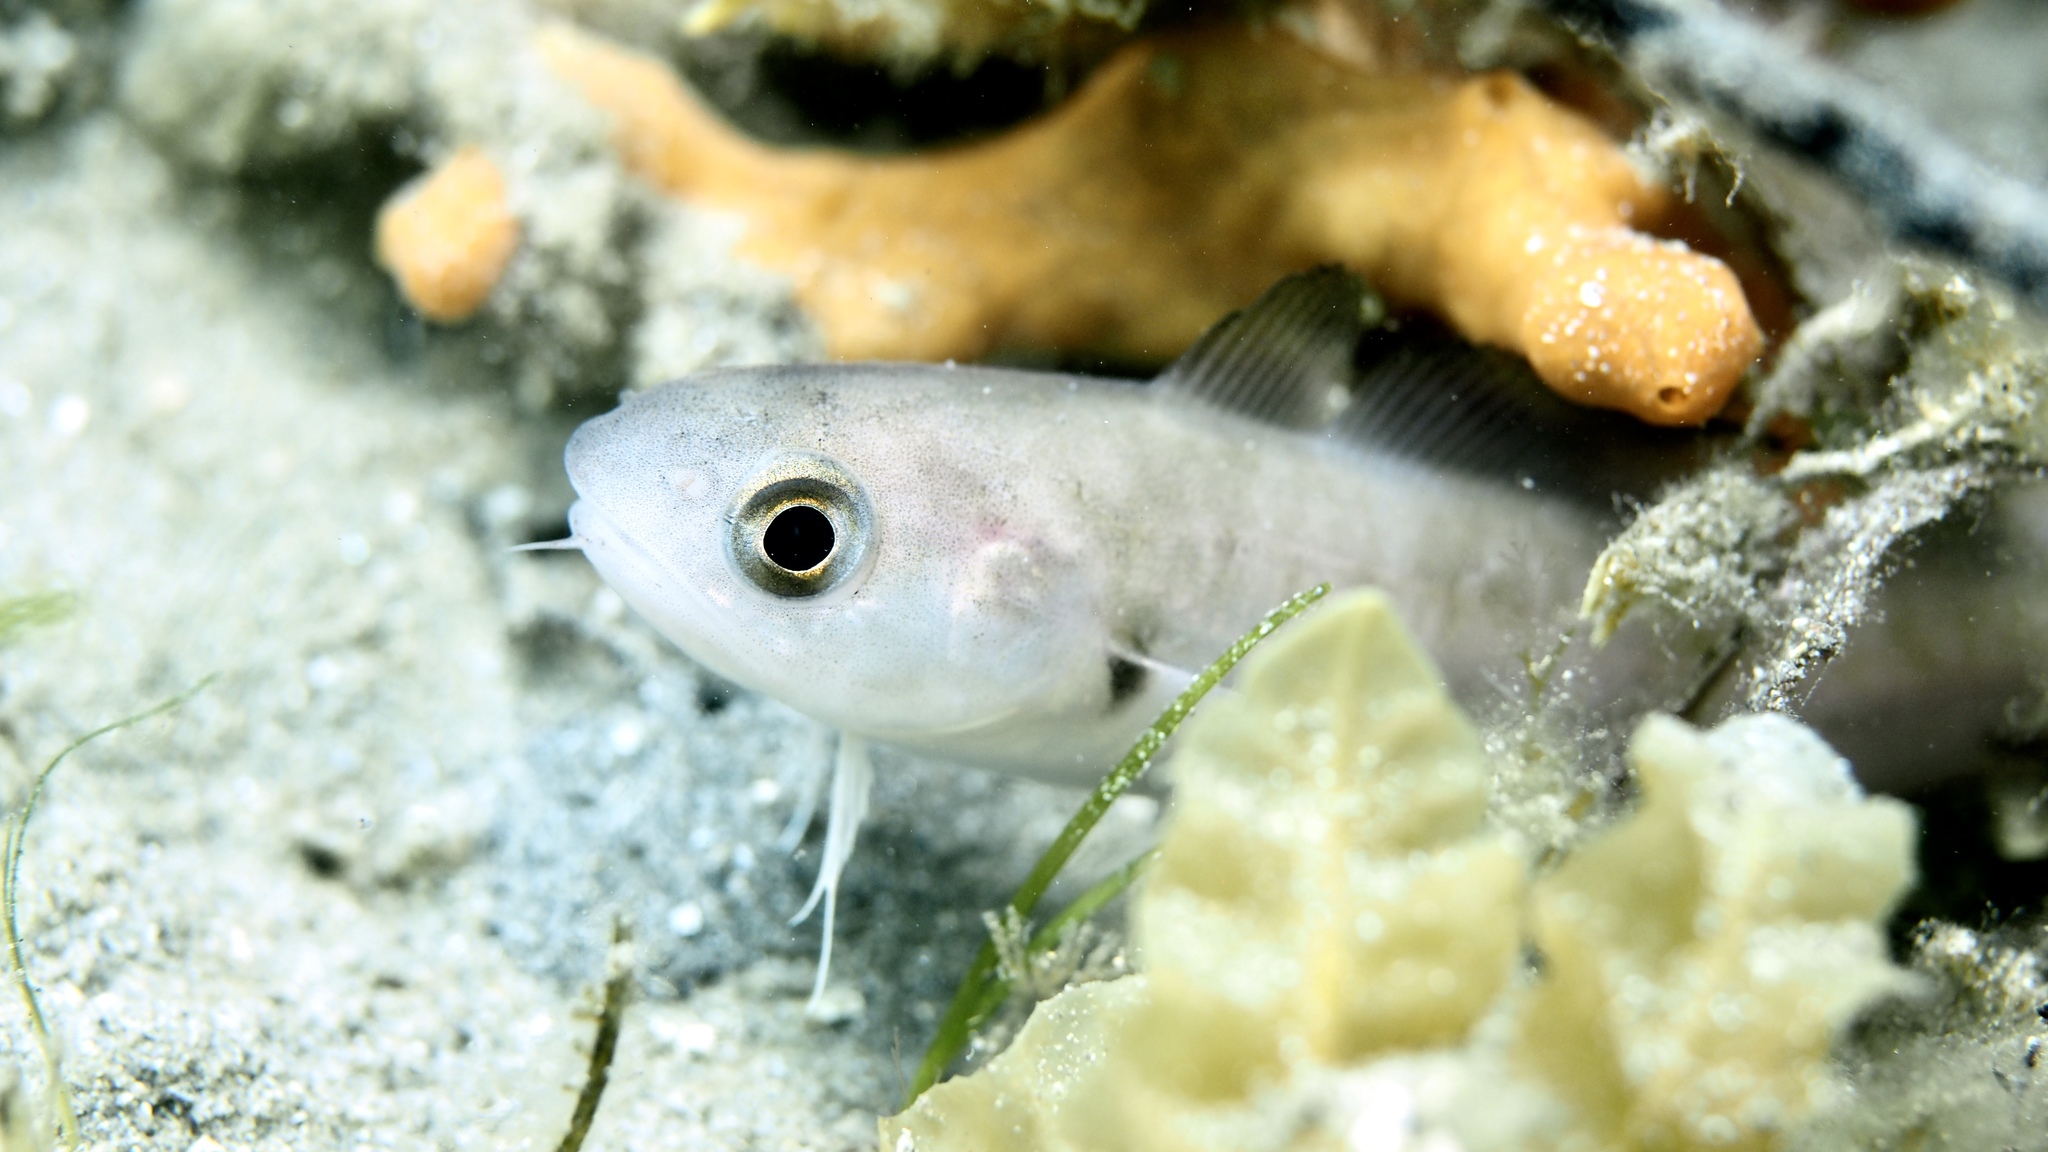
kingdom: Animalia
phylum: Chordata
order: Gadiformes
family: Moridae
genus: Pseudophycis
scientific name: Pseudophycis palmata
